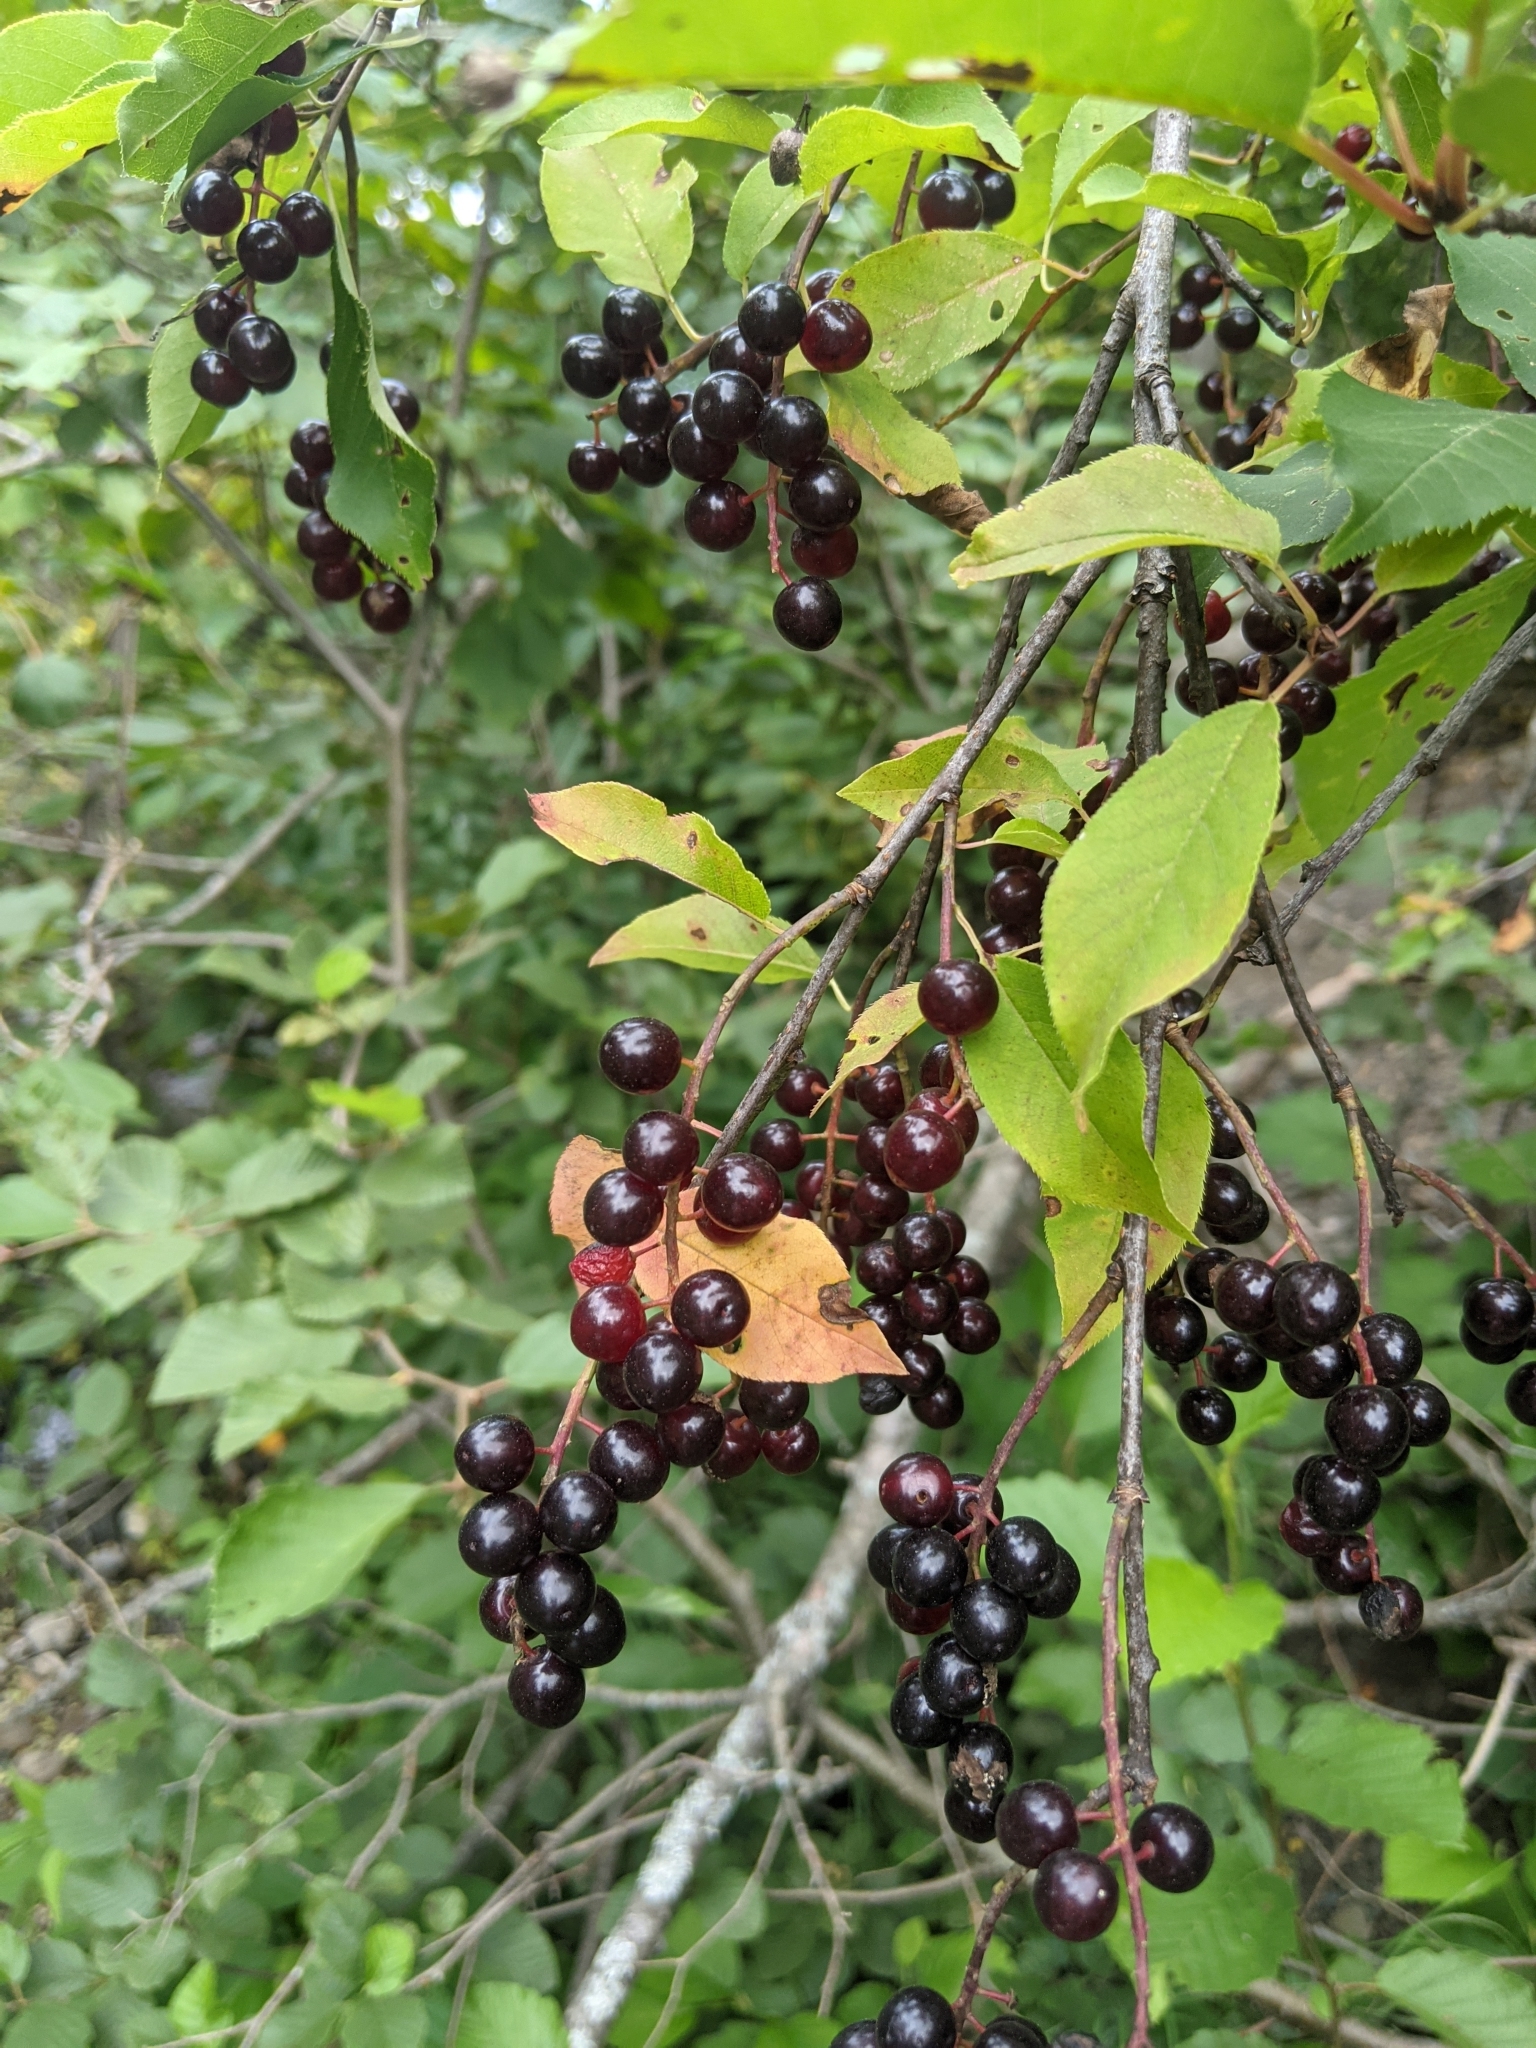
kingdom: Plantae
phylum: Tracheophyta
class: Magnoliopsida
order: Rosales
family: Rosaceae
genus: Prunus
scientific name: Prunus virginiana
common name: Chokecherry
